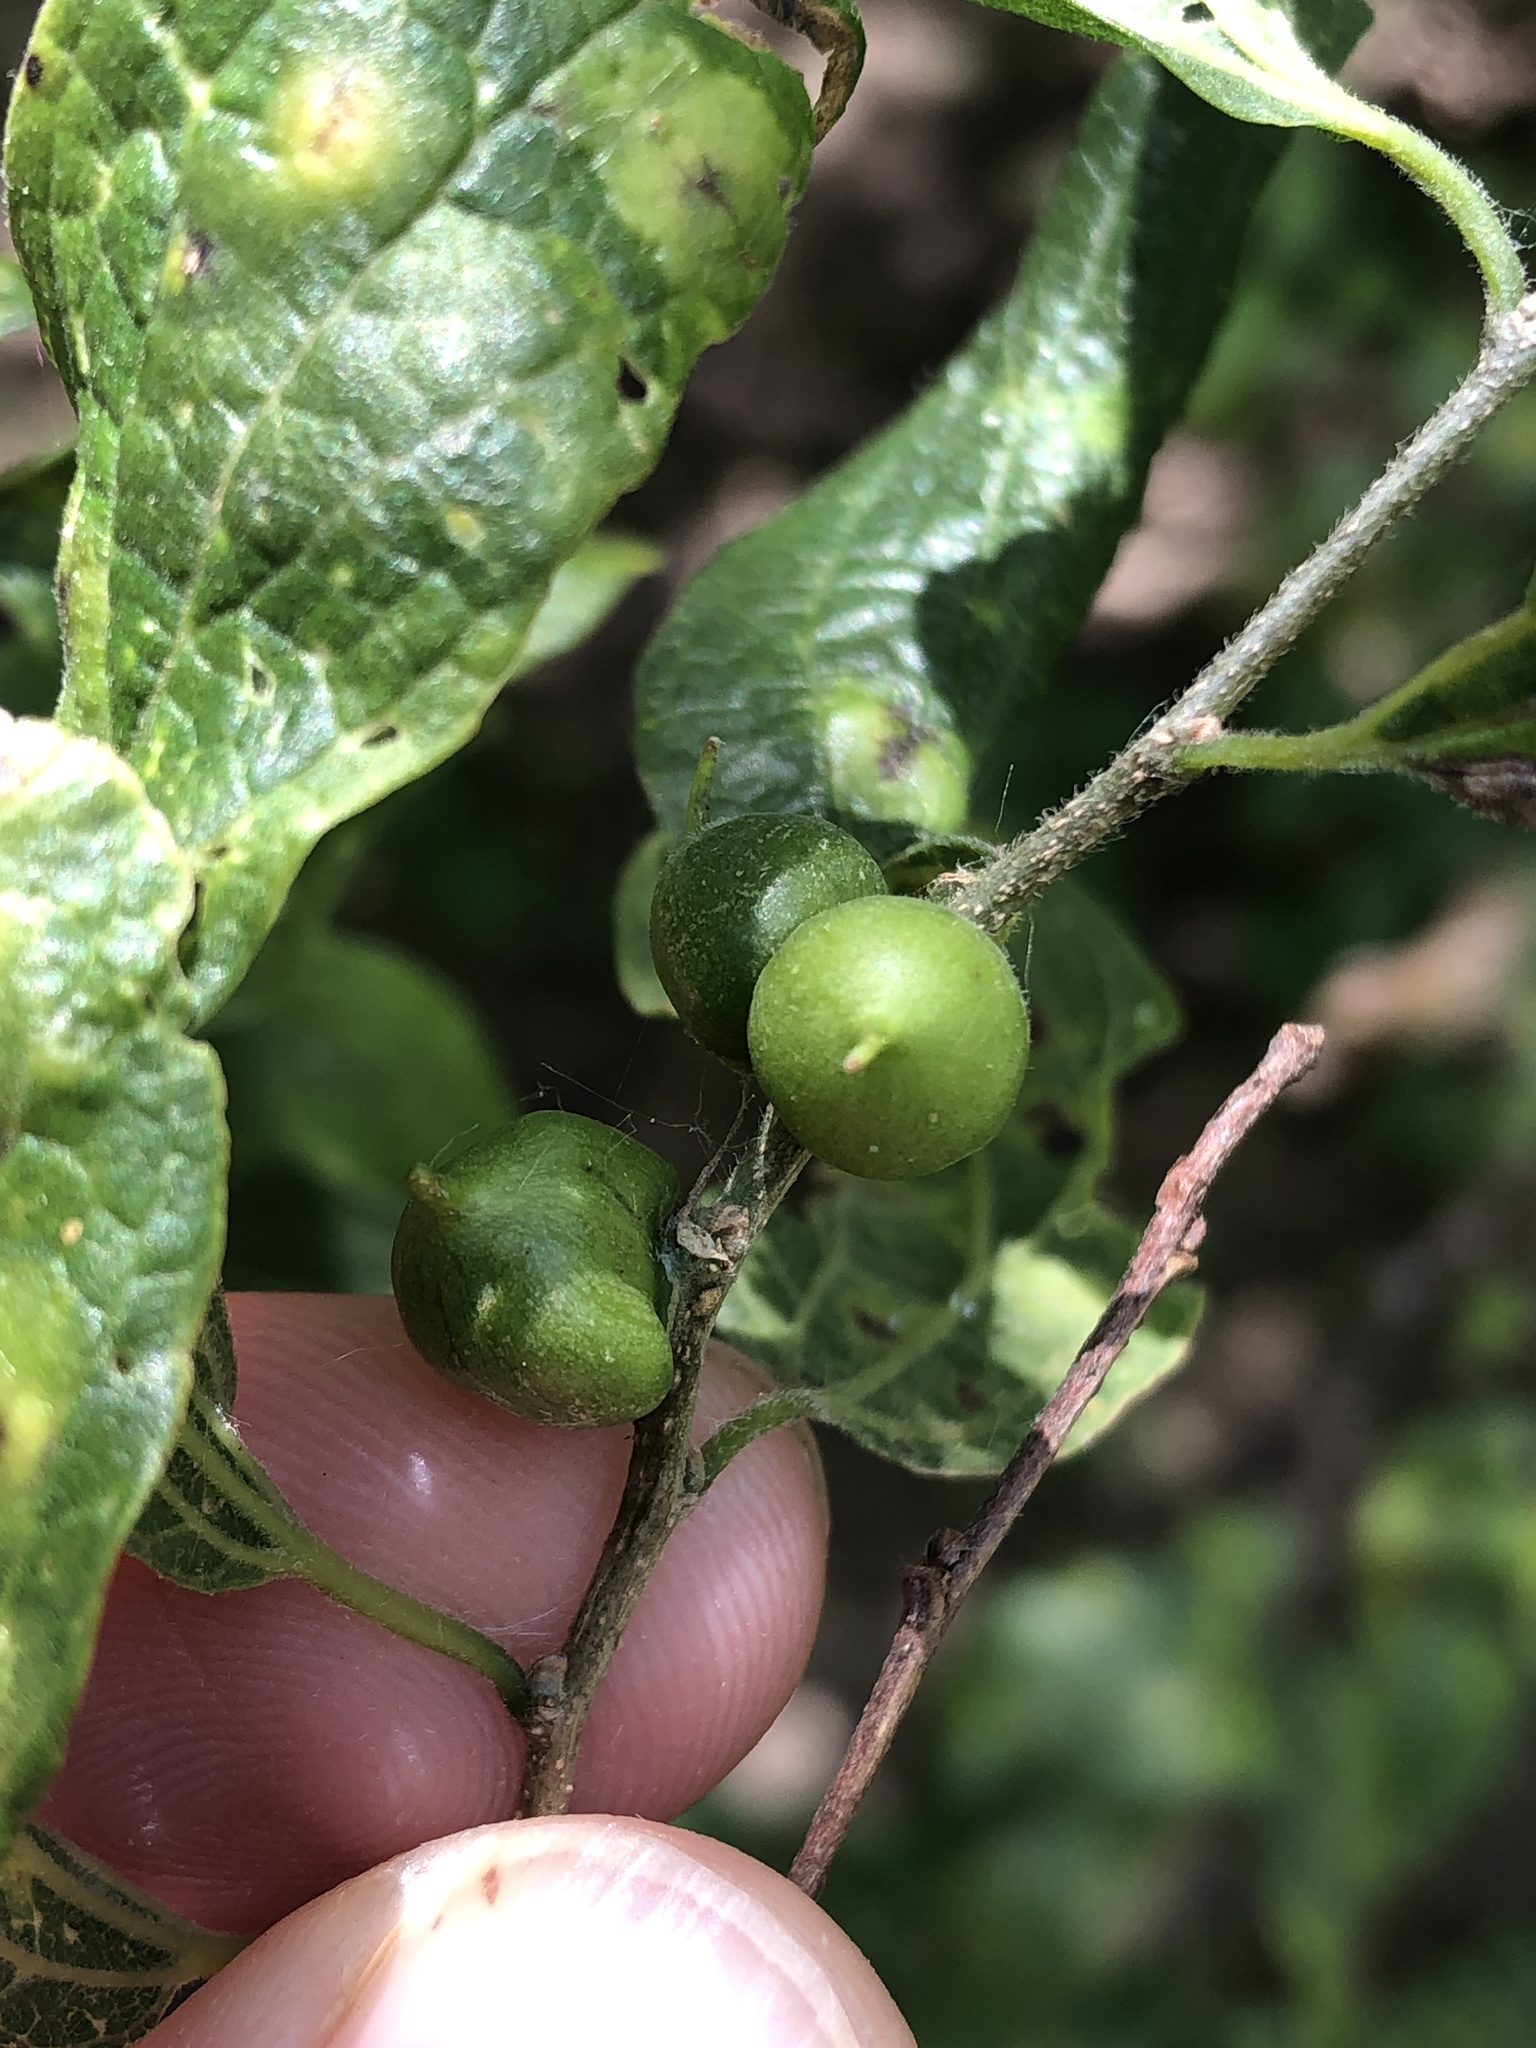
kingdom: Animalia
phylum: Arthropoda
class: Insecta
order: Diptera
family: Cecidomyiidae
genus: Celticecis
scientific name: Celticecis connata
